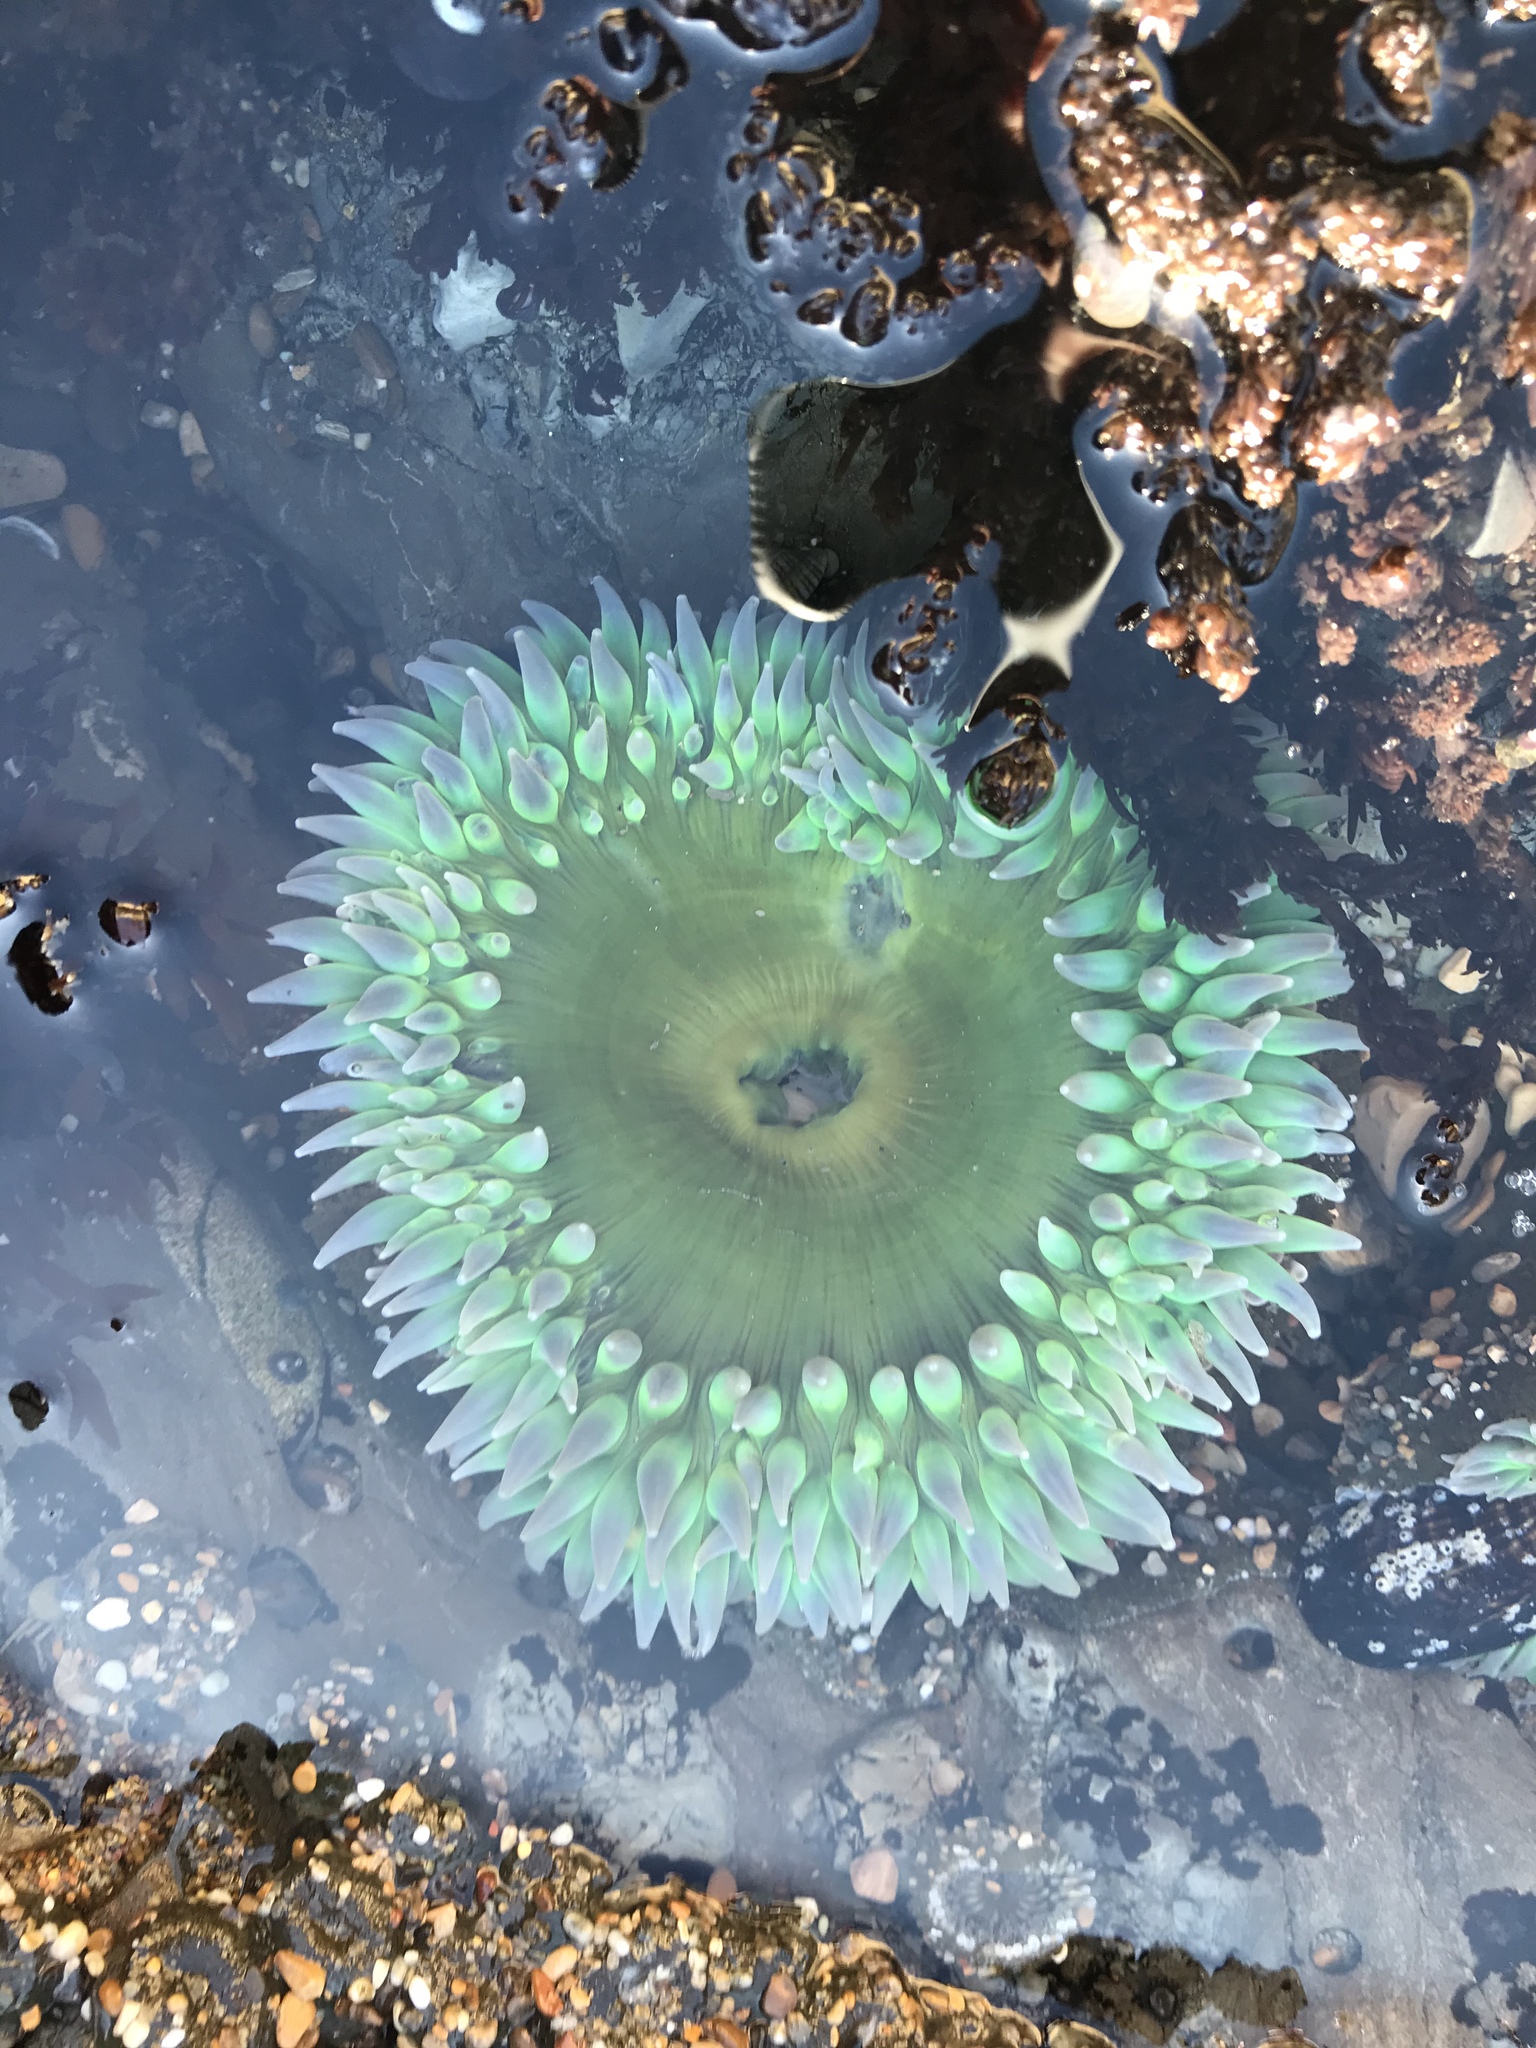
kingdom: Animalia
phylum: Cnidaria
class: Anthozoa
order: Actiniaria
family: Actiniidae
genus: Anthopleura
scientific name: Anthopleura xanthogrammica
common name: Giant green anemone
